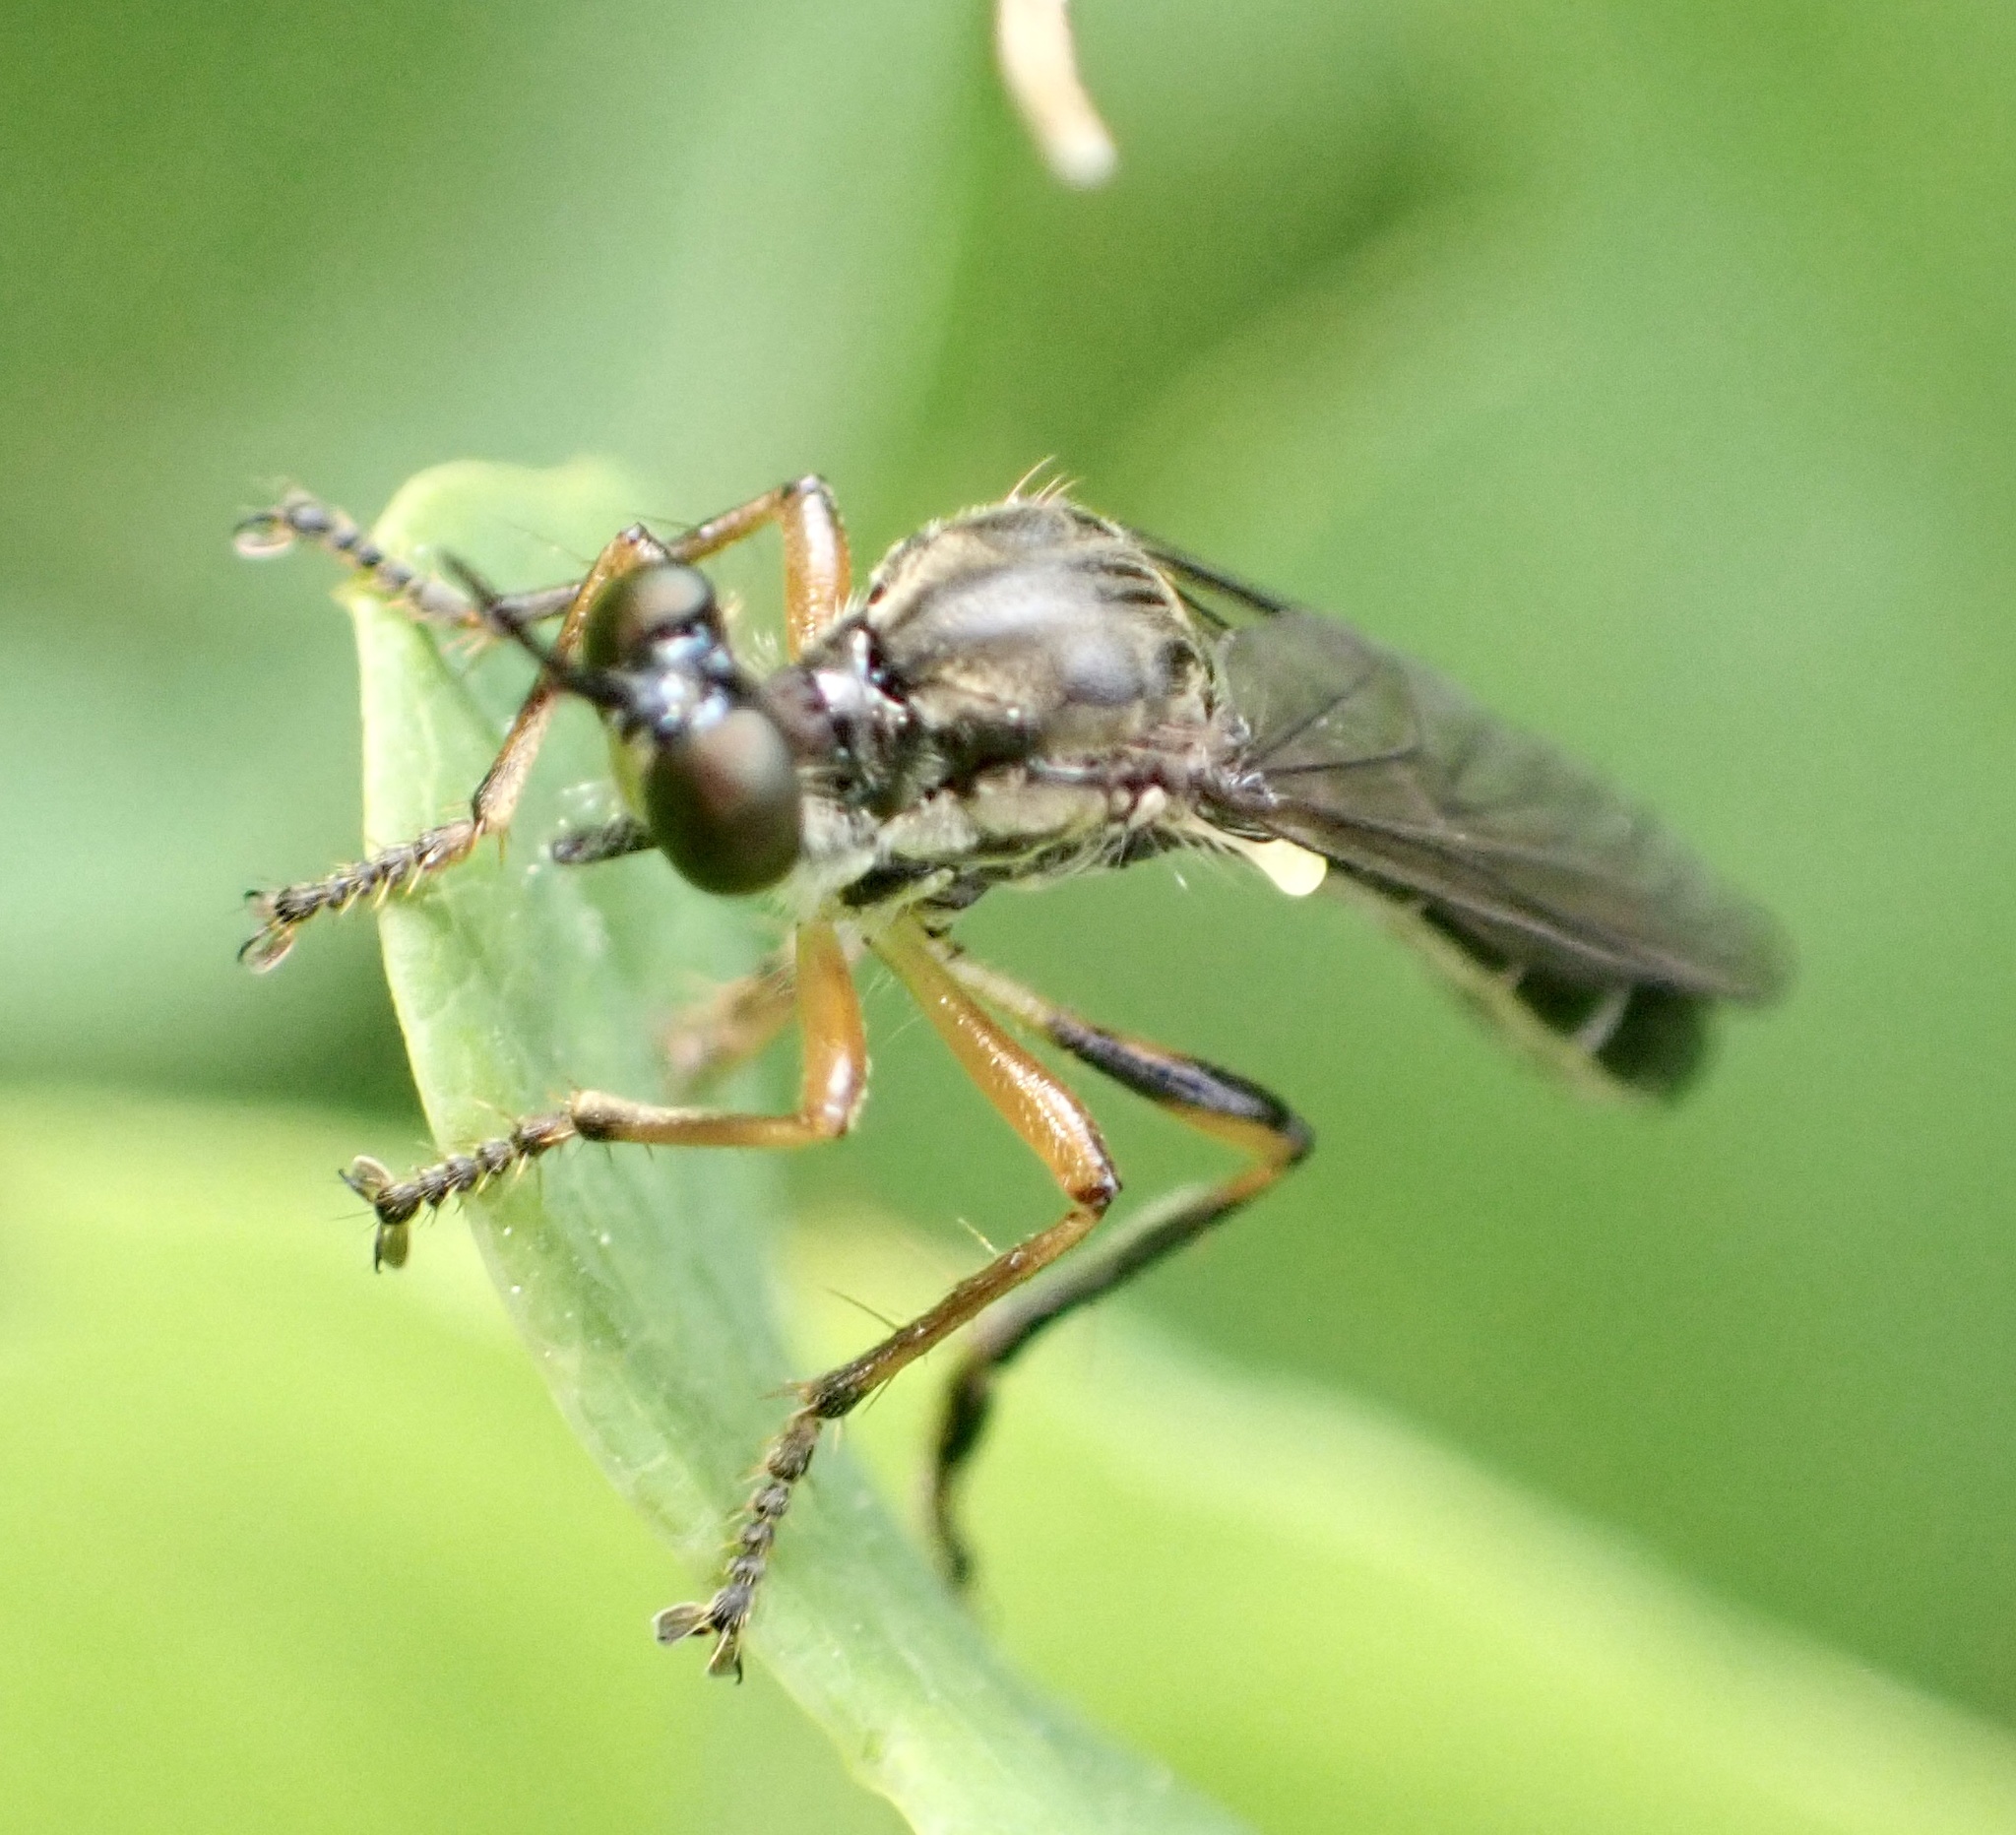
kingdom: Animalia
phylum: Arthropoda
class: Insecta
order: Diptera
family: Asilidae
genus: Dioctria
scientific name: Dioctria hyalipennis
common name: Stripe-legged robberfly
